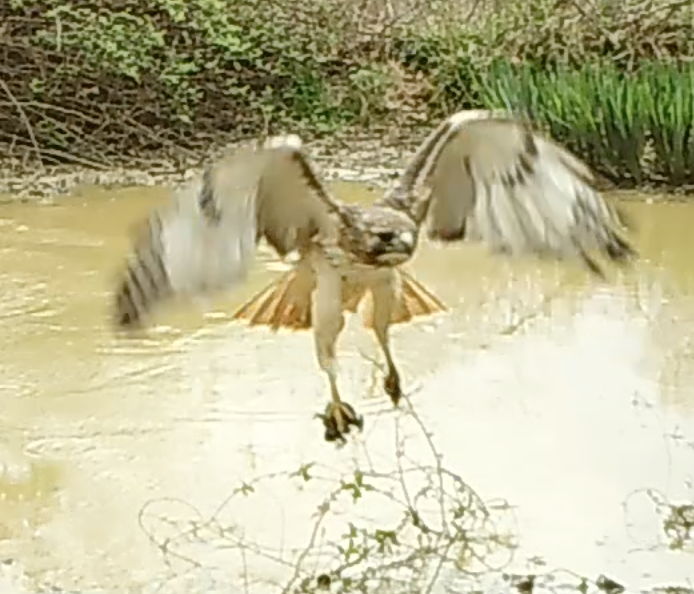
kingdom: Animalia
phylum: Chordata
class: Aves
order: Accipitriformes
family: Accipitridae
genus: Buteo
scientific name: Buteo jamaicensis
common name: Red-tailed hawk
